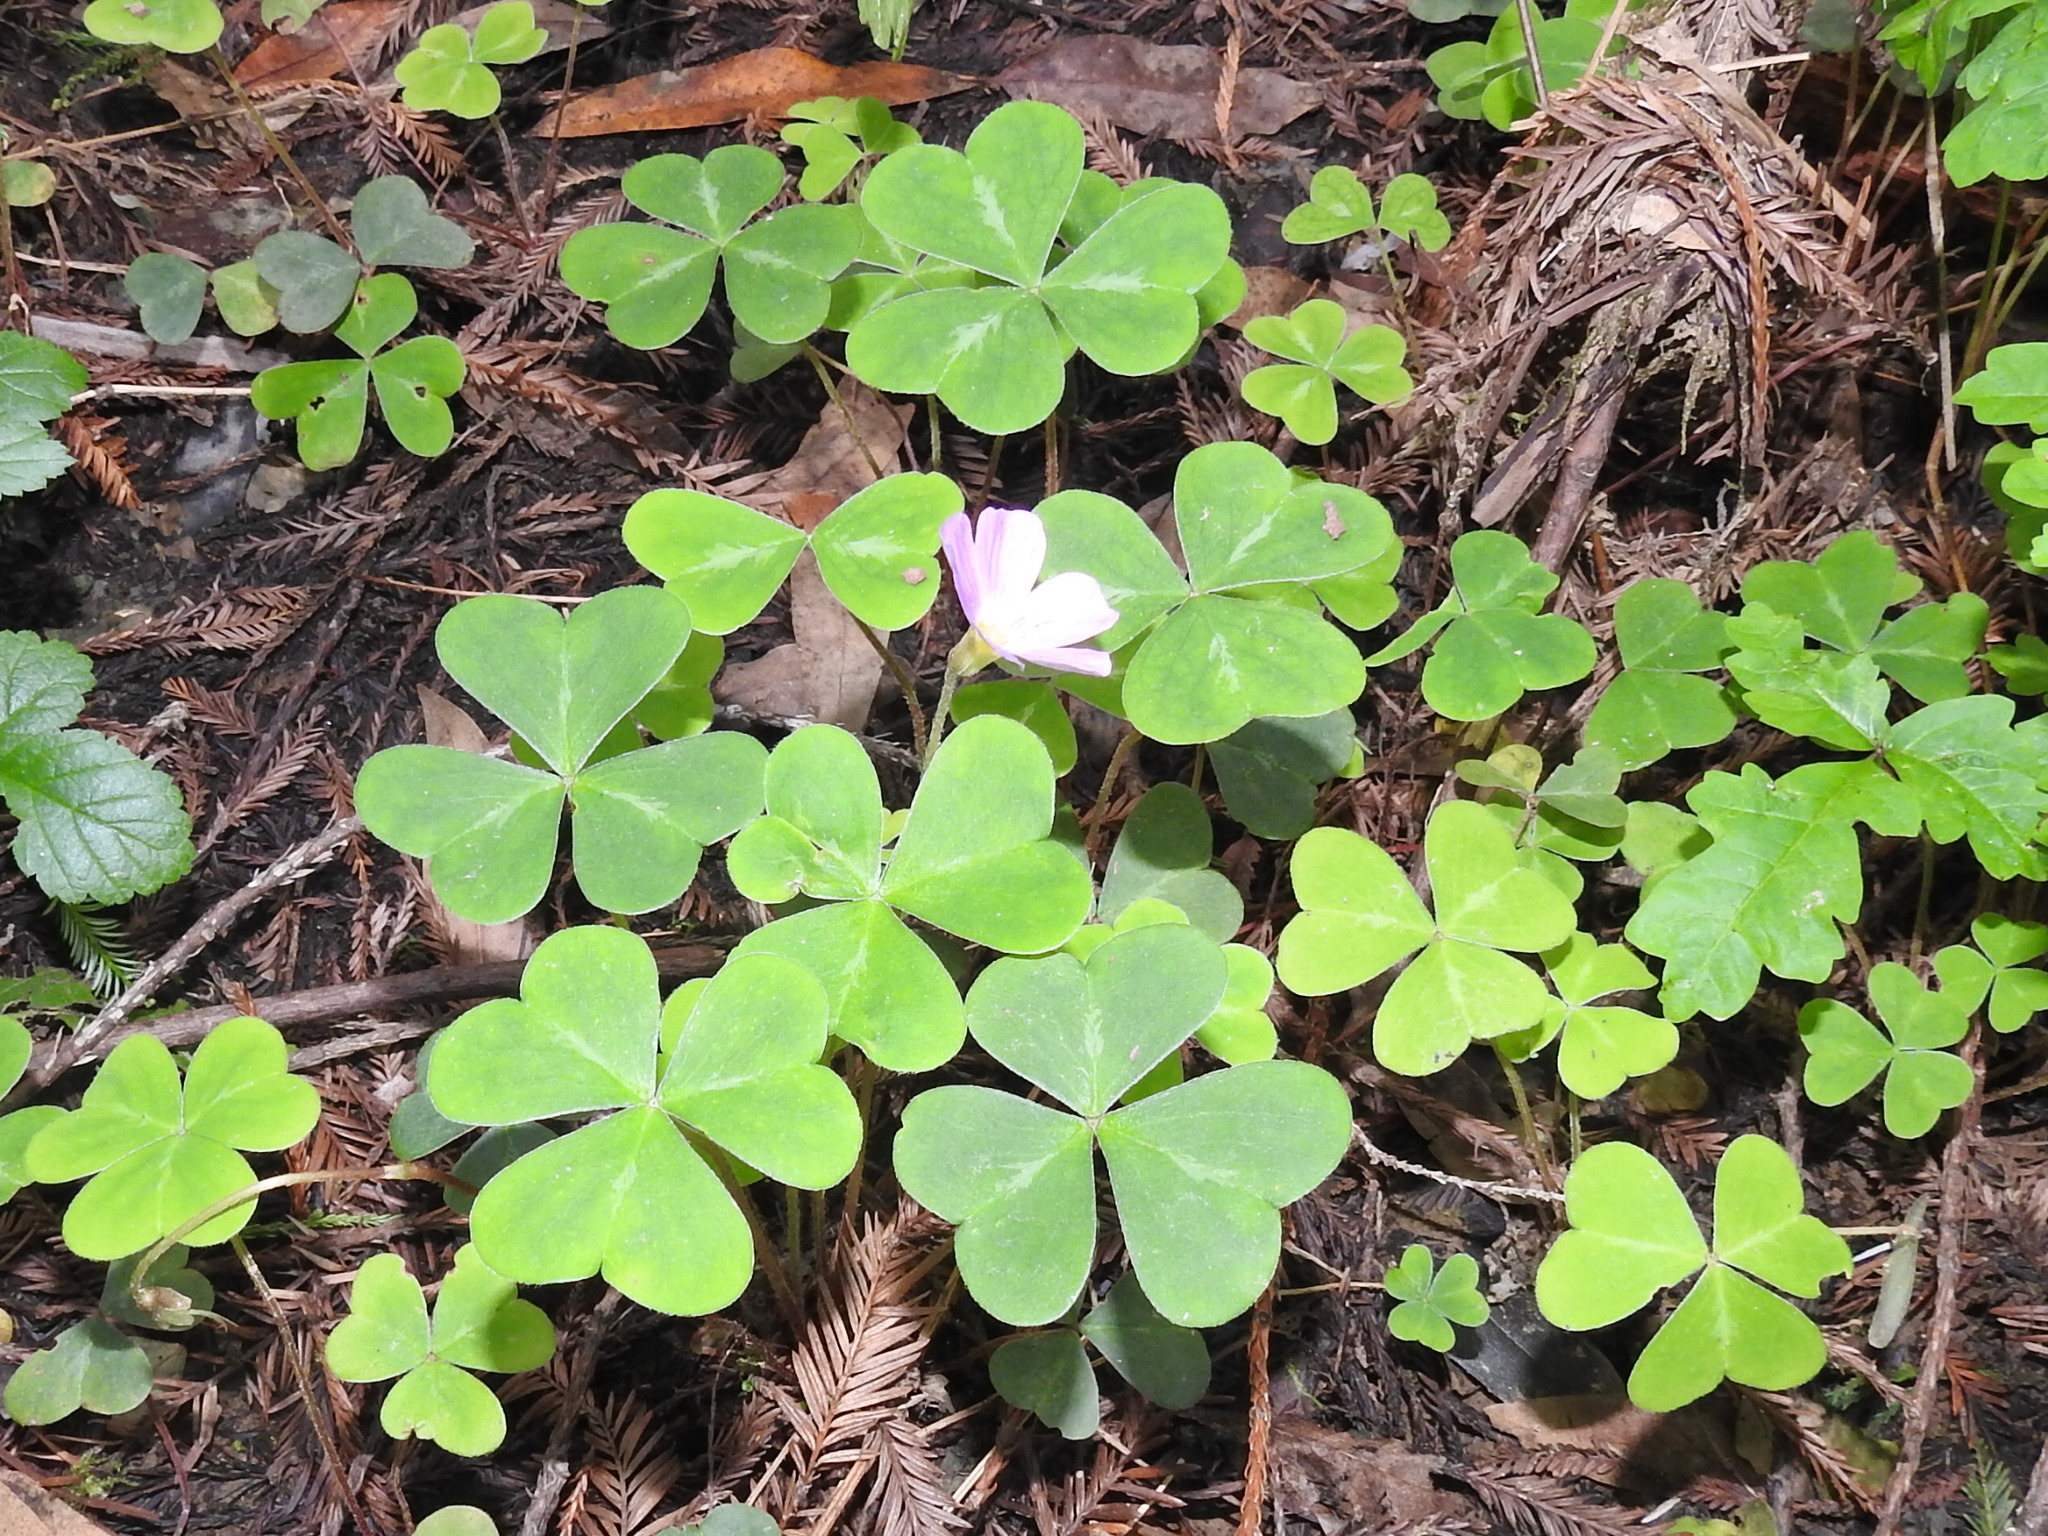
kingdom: Plantae
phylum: Tracheophyta
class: Magnoliopsida
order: Oxalidales
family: Oxalidaceae
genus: Oxalis
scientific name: Oxalis oregana
